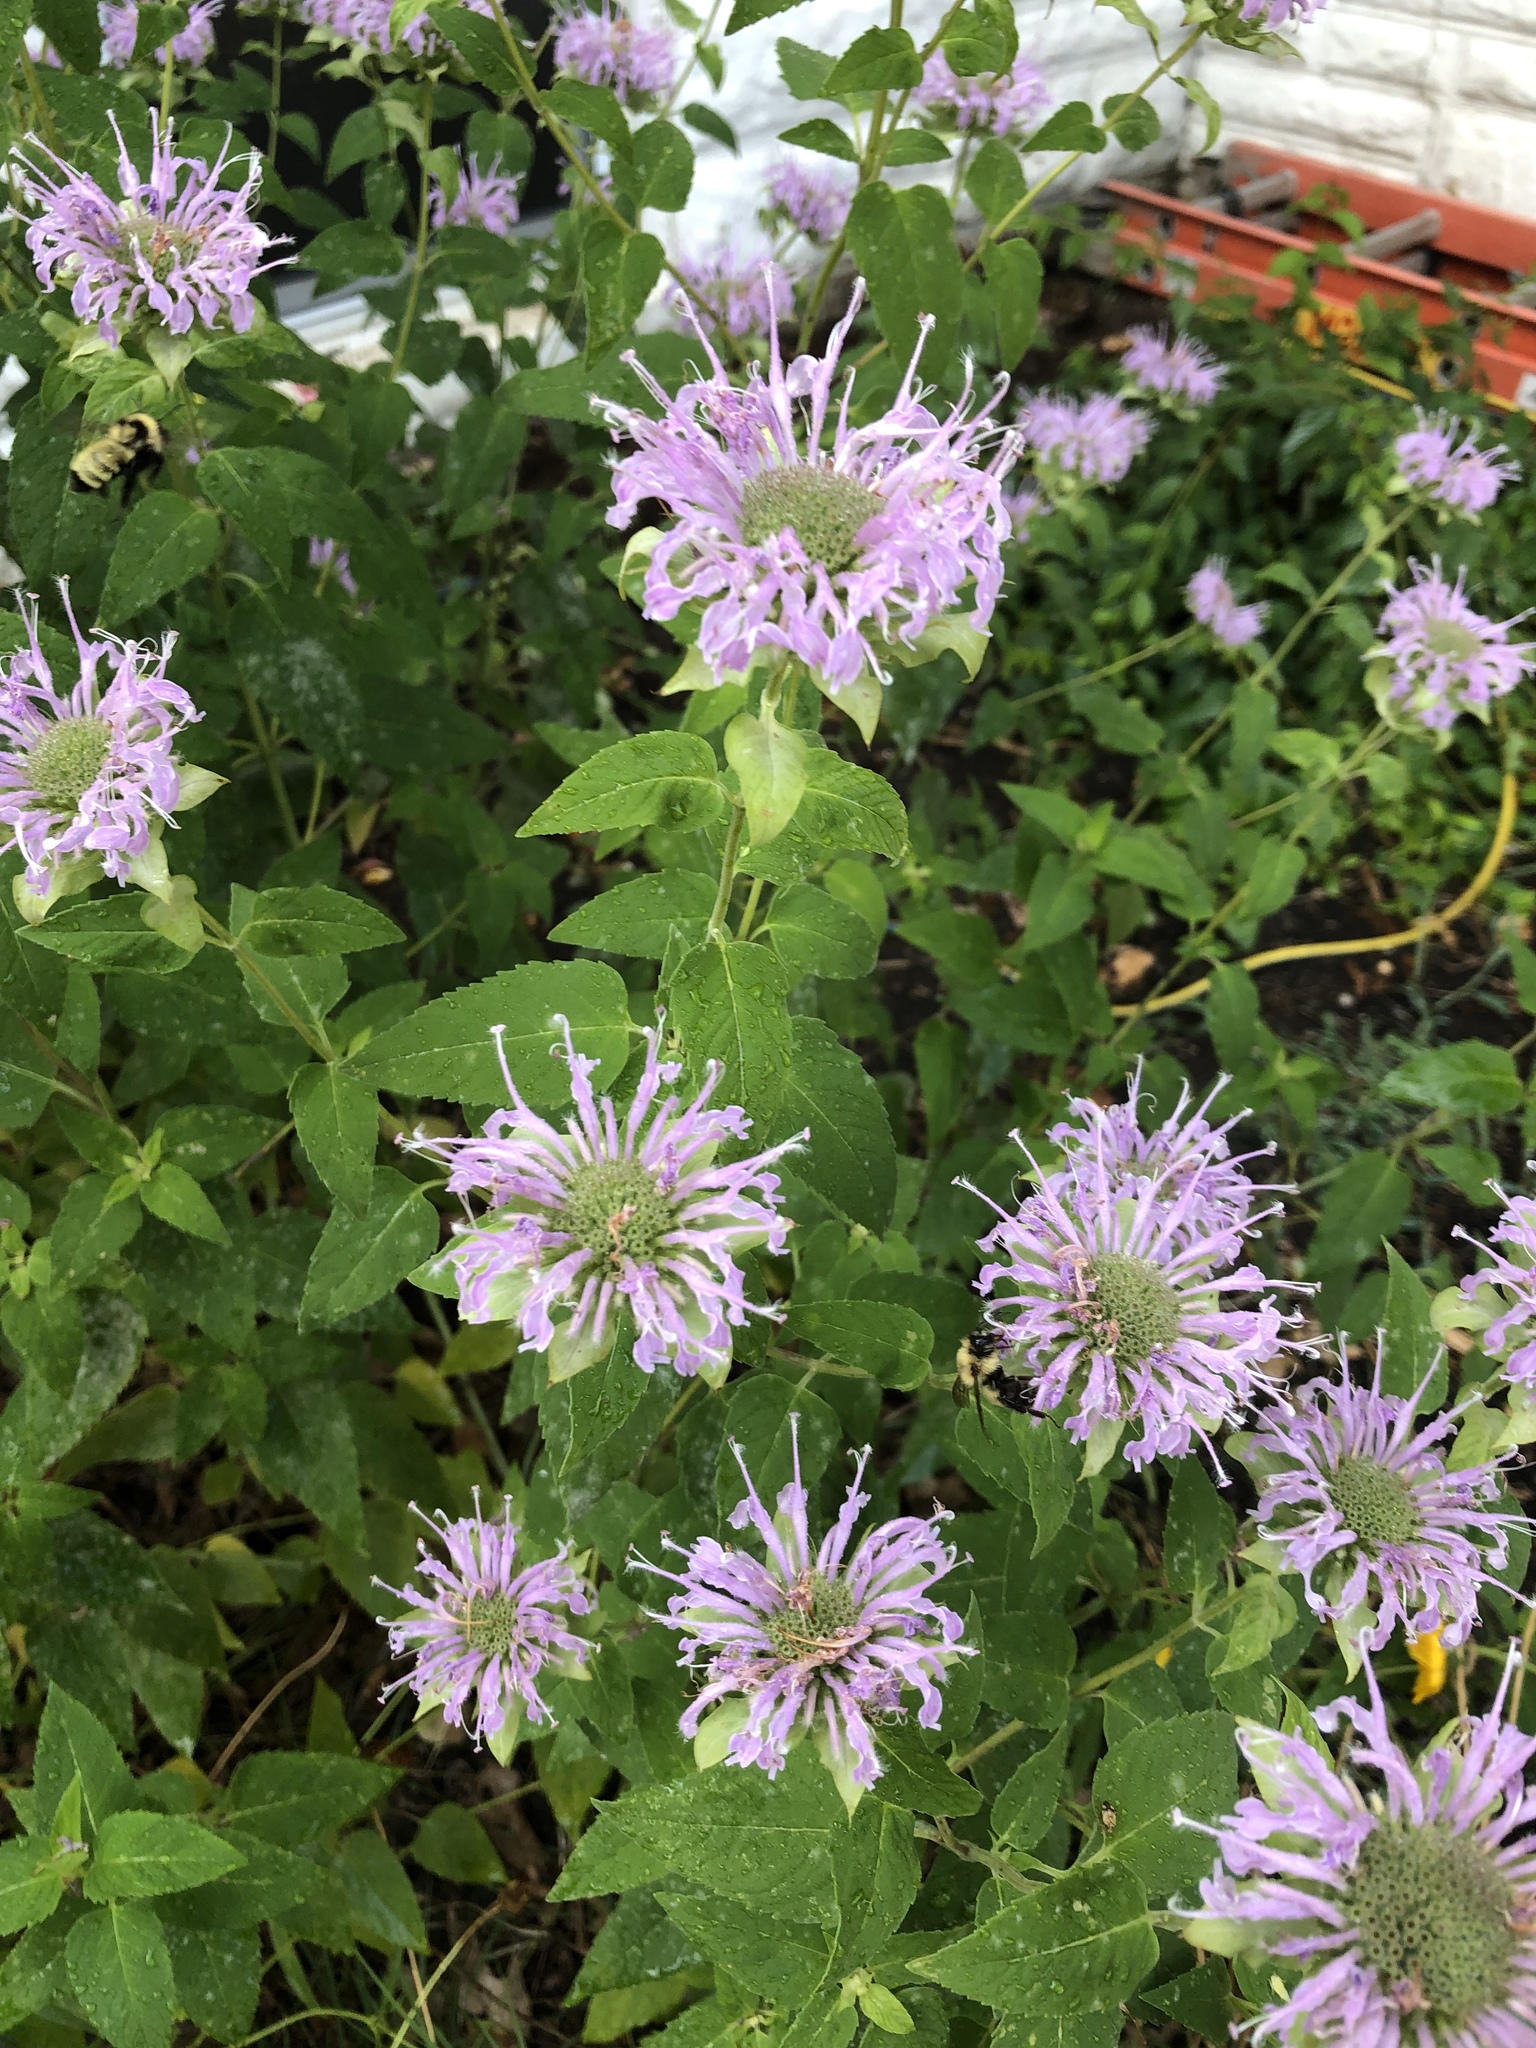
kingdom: Plantae
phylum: Tracheophyta
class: Magnoliopsida
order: Lamiales
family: Lamiaceae
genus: Monarda
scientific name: Monarda fistulosa
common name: Purple beebalm
